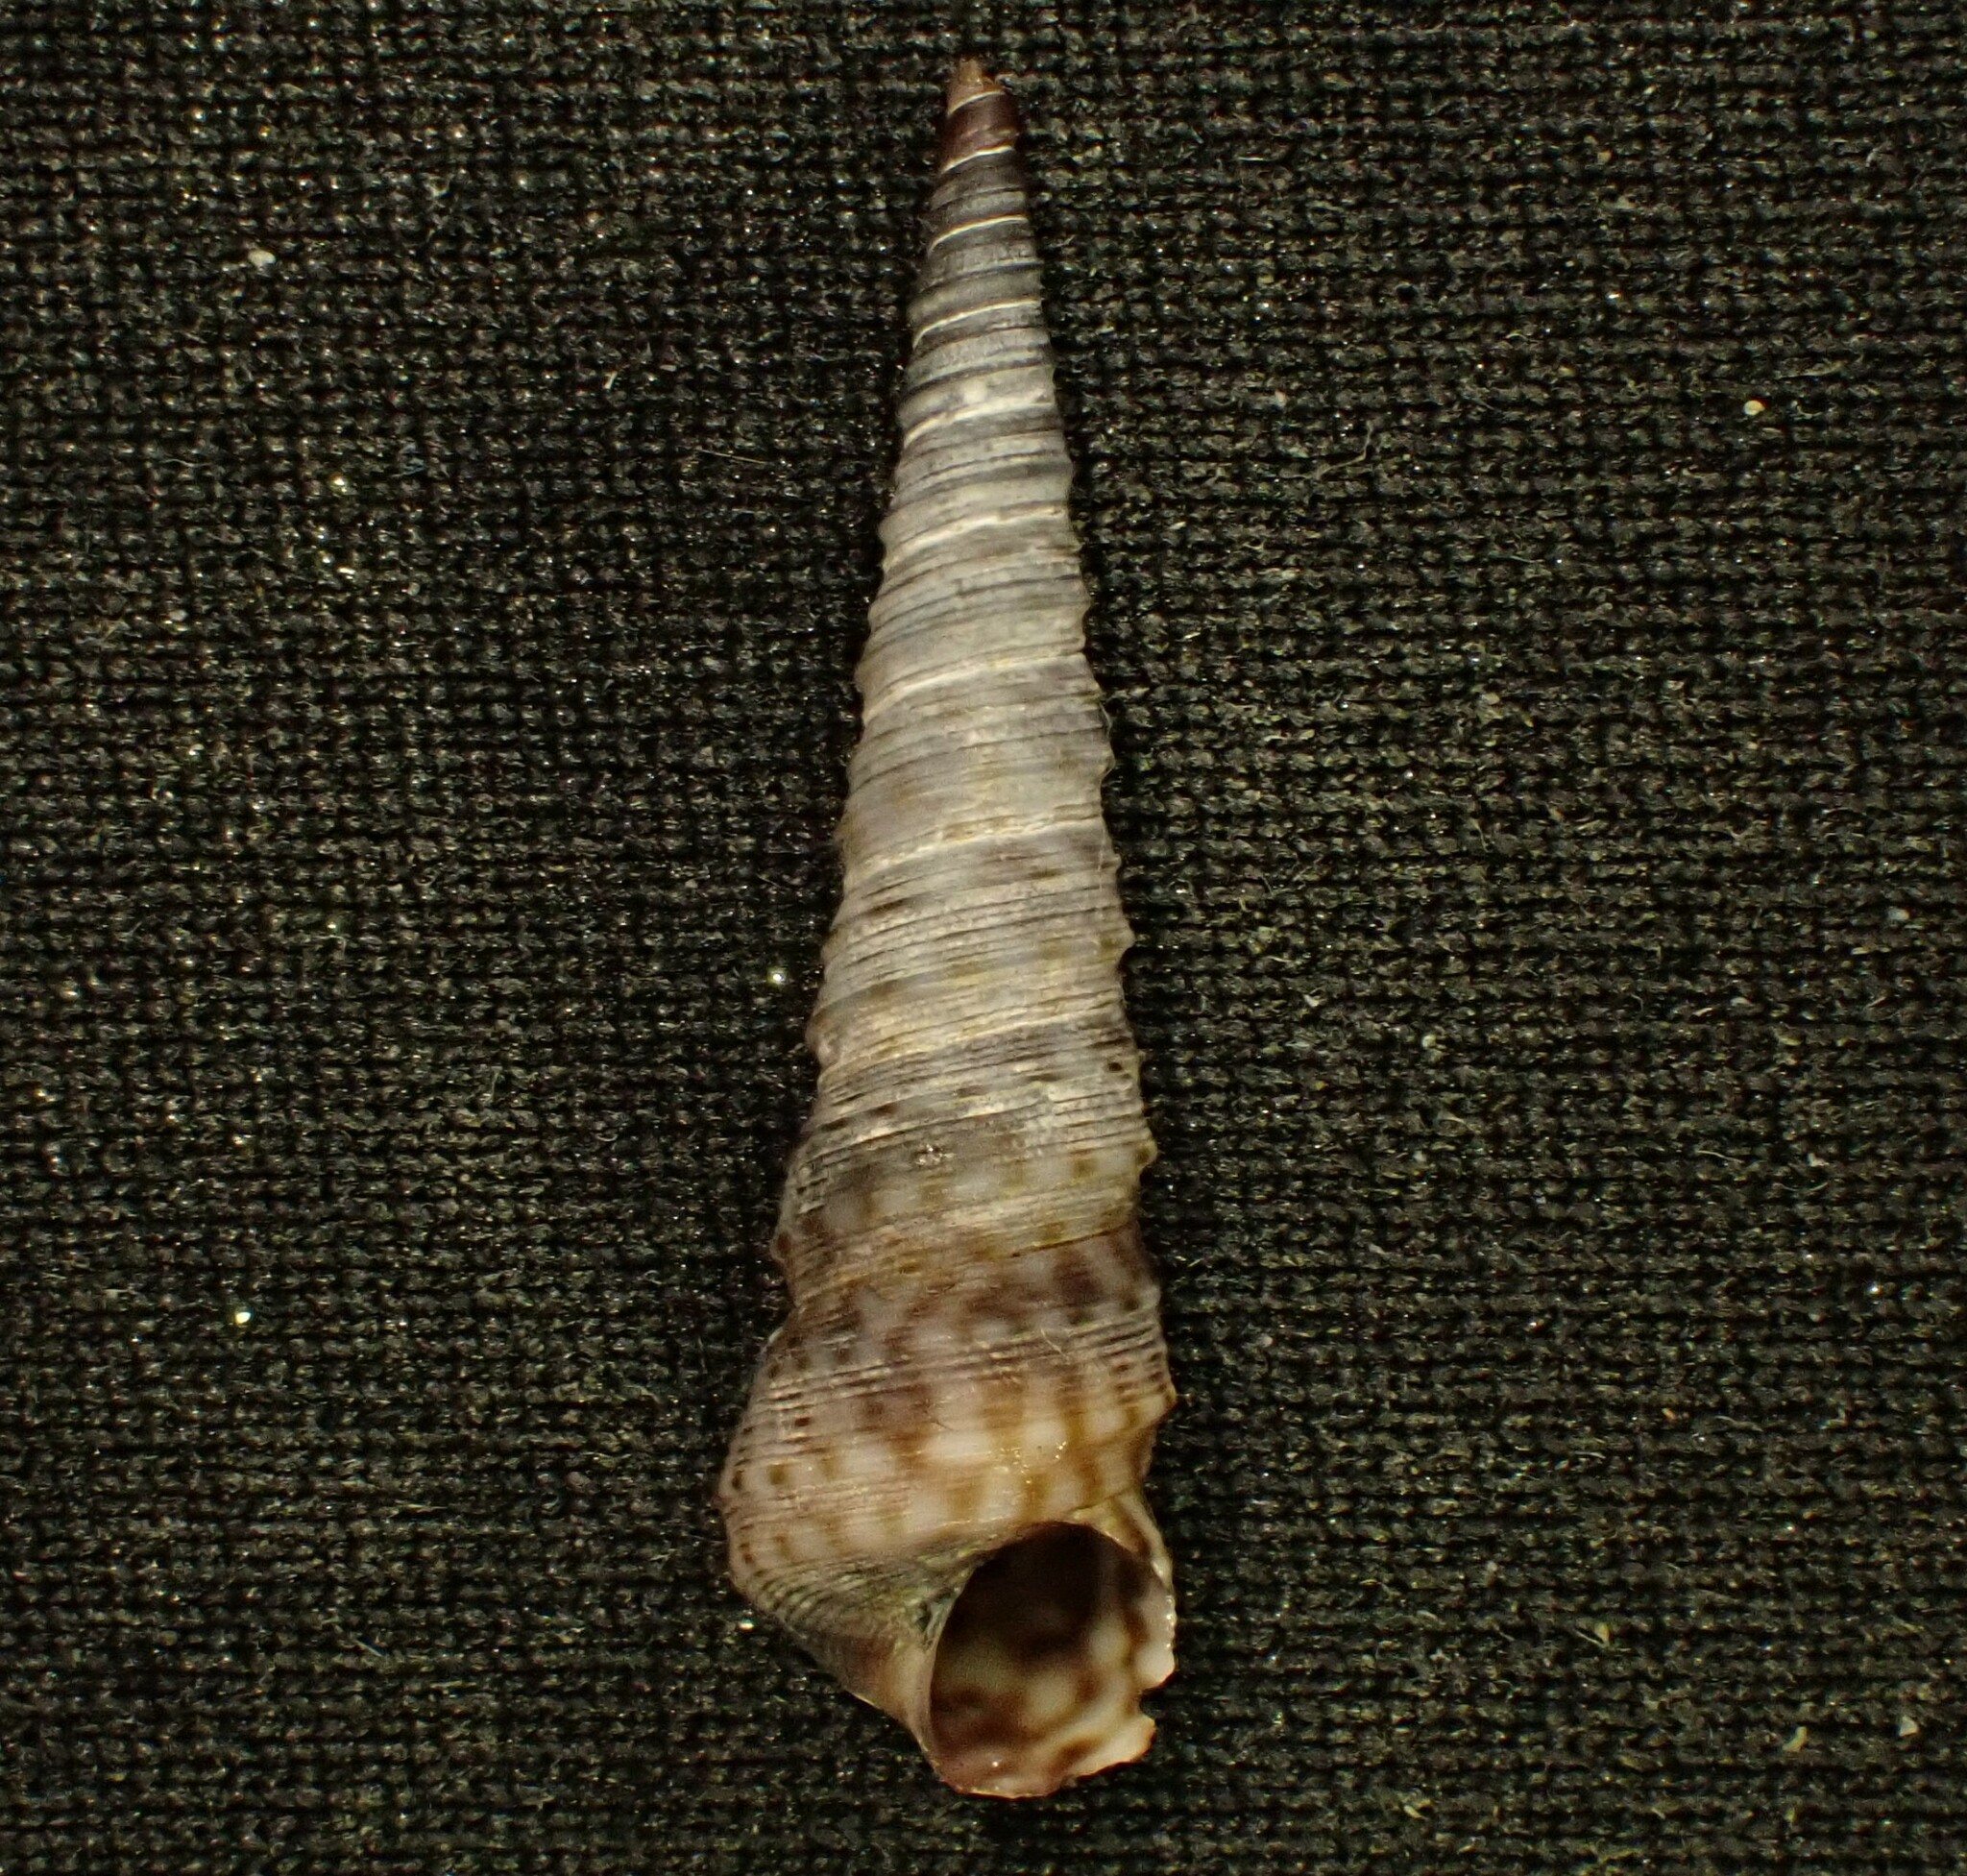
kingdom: Animalia
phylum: Mollusca
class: Gastropoda
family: Turritellidae
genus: Stiracolpus
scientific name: Stiracolpus pagoda
